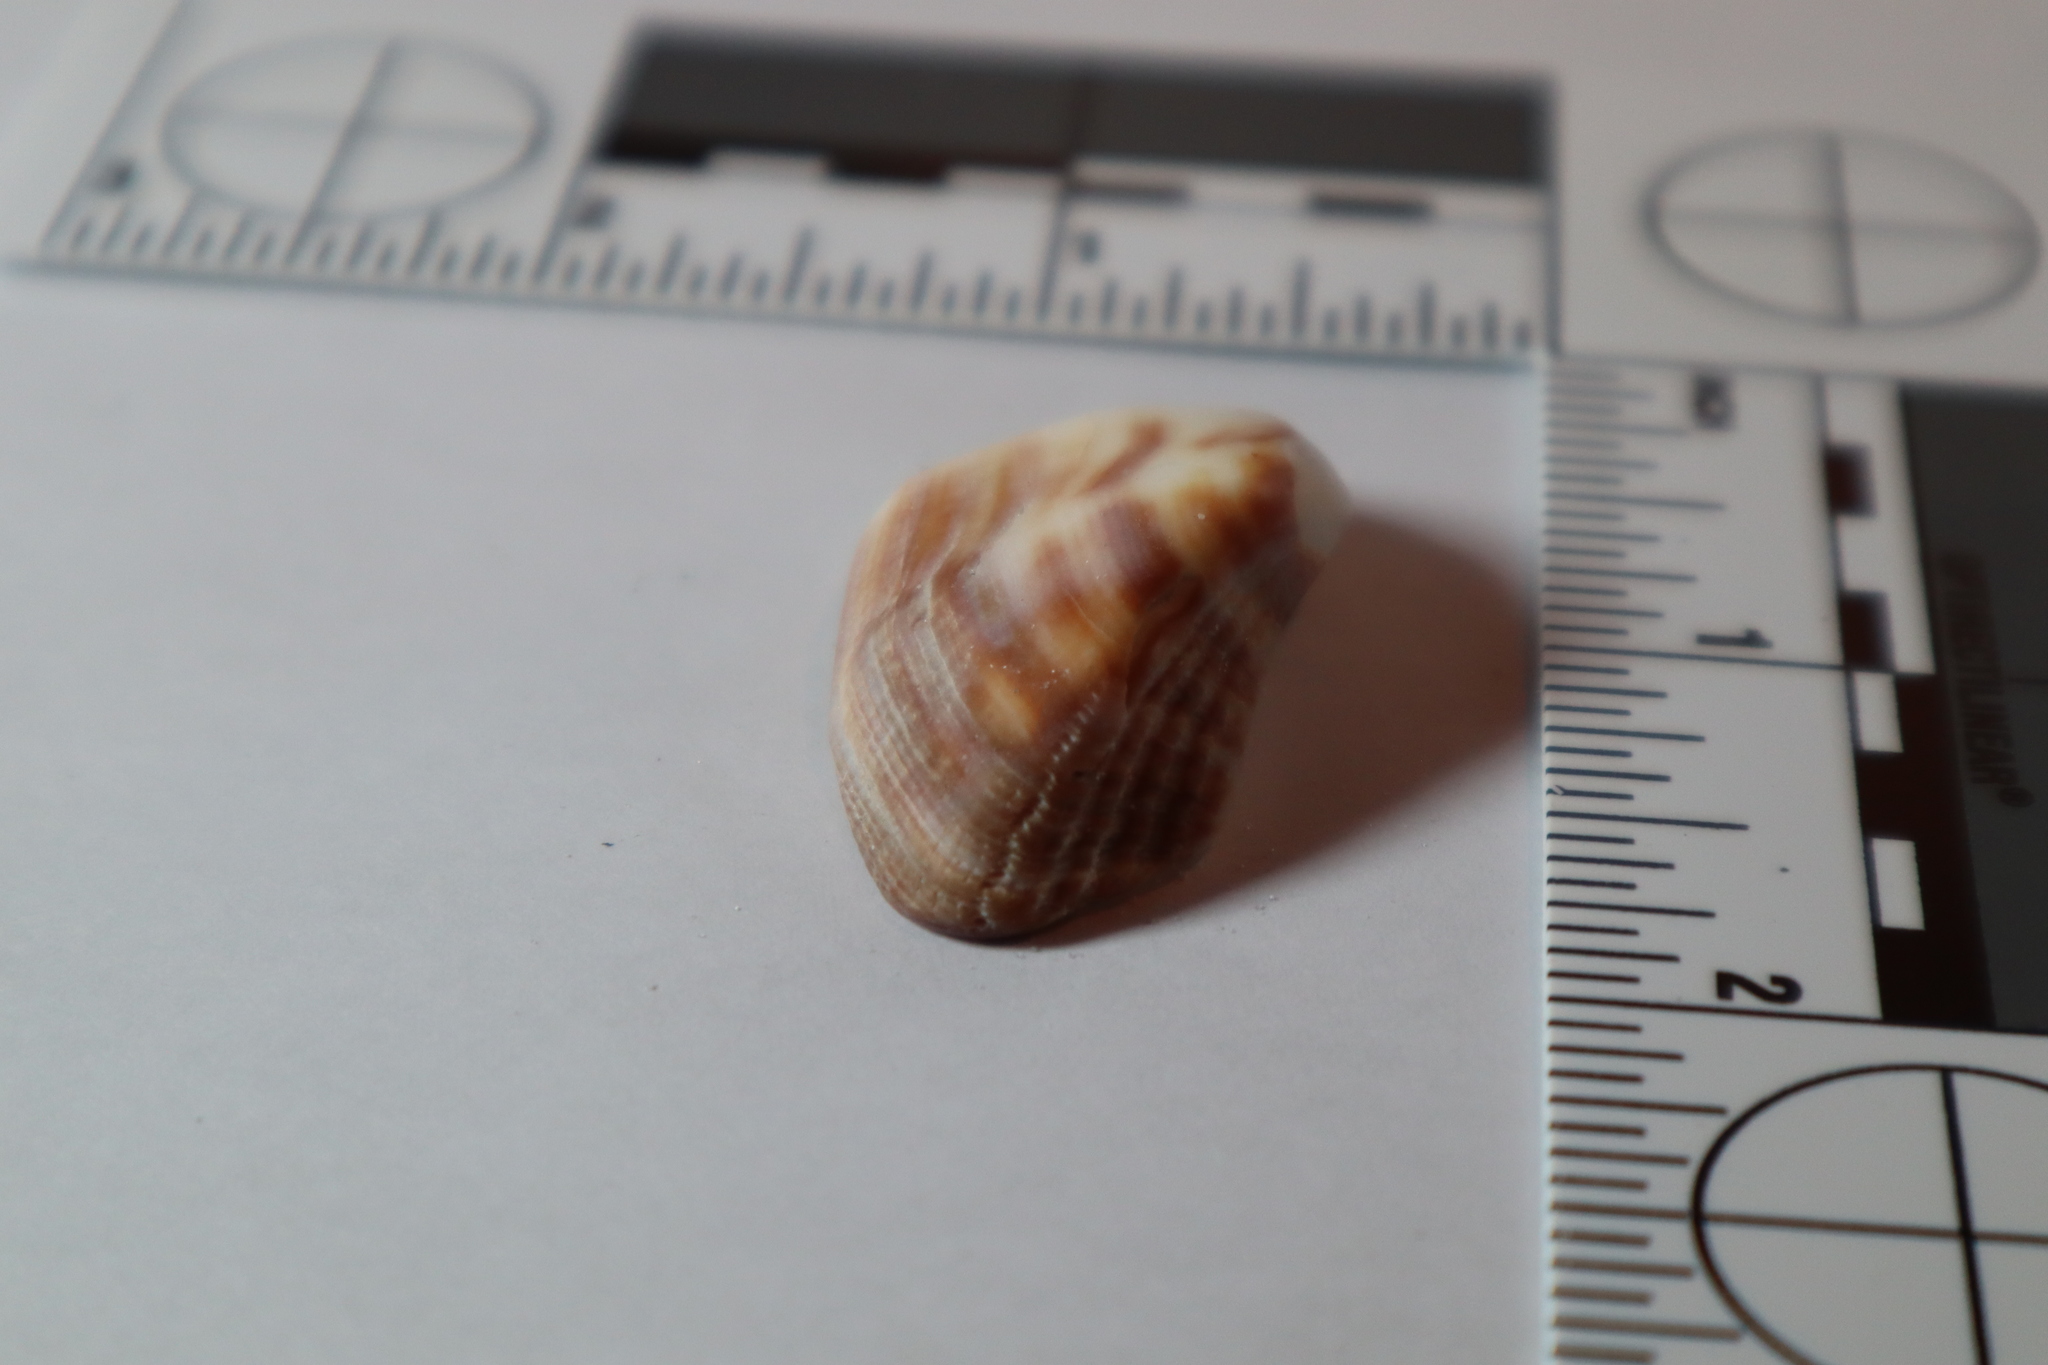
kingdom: Animalia
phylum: Mollusca
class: Bivalvia
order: Arcida
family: Arcidae
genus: Lamarcka
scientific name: Lamarcka imbricata
